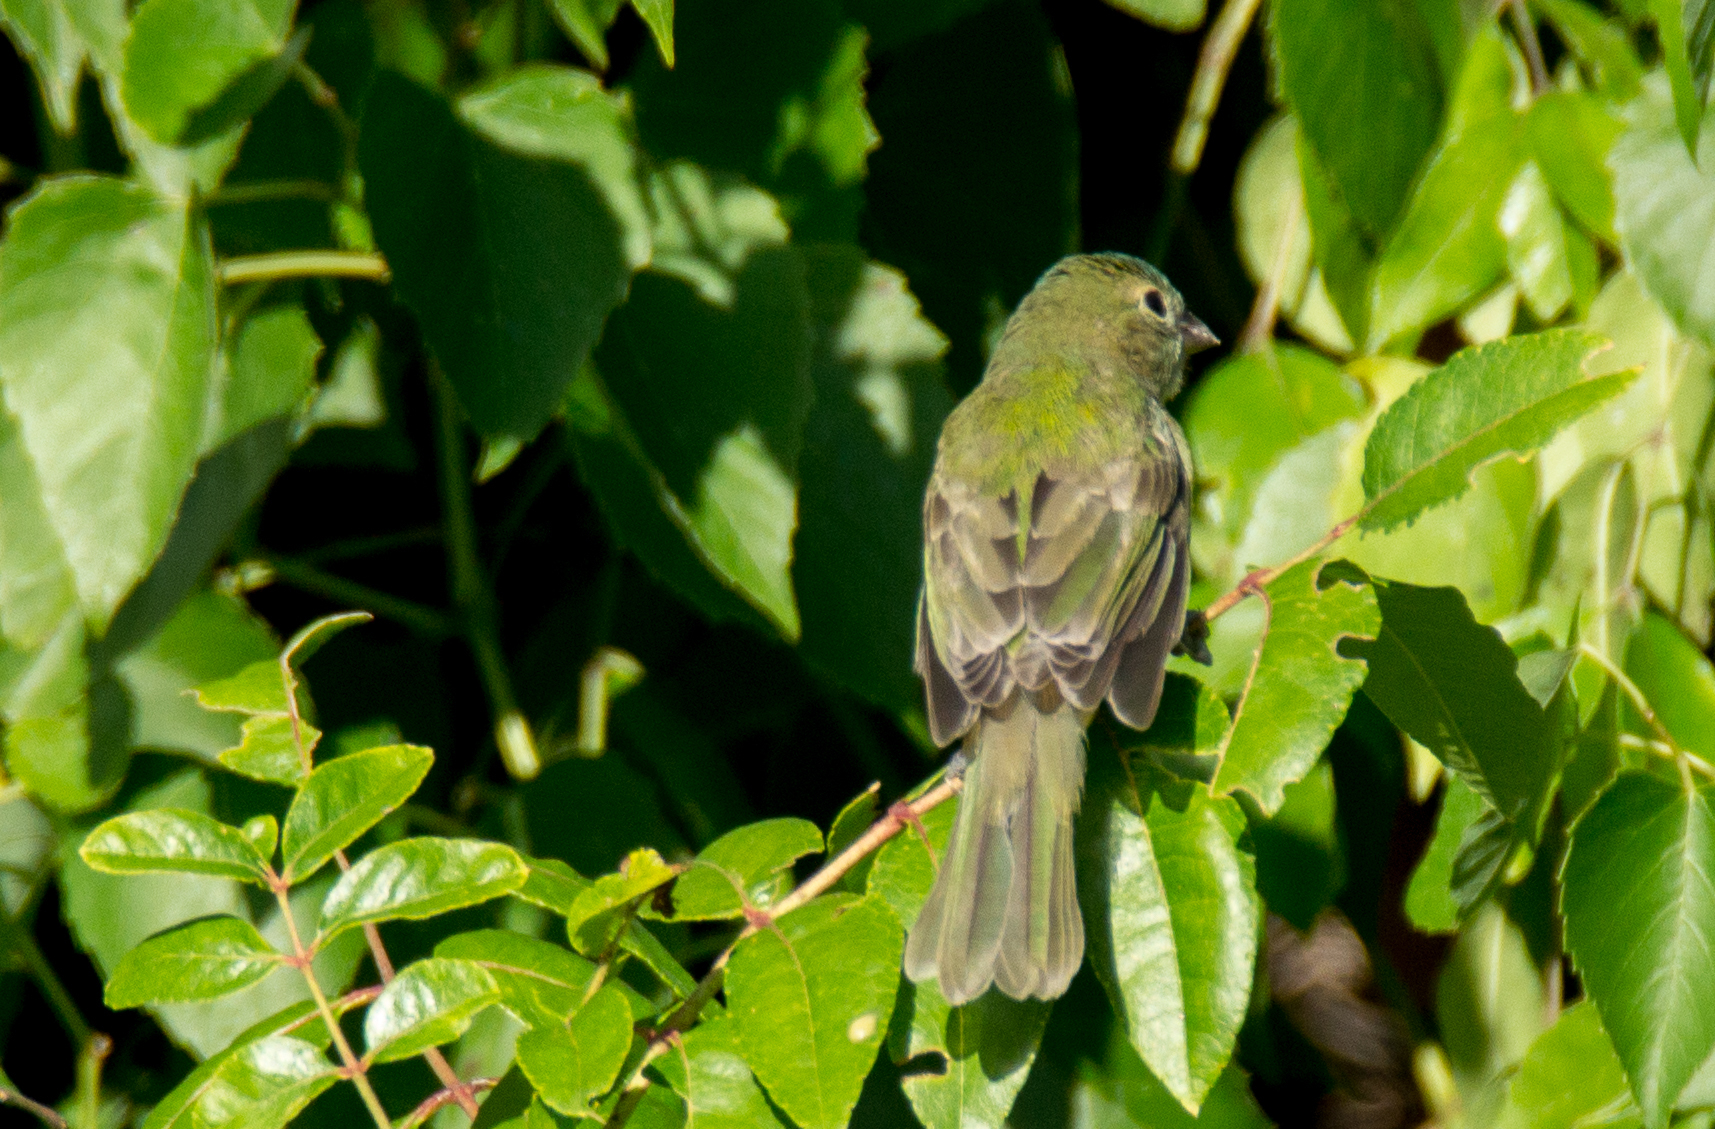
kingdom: Animalia
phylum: Chordata
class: Aves
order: Passeriformes
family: Cardinalidae
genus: Passerina
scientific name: Passerina ciris
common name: Painted bunting
